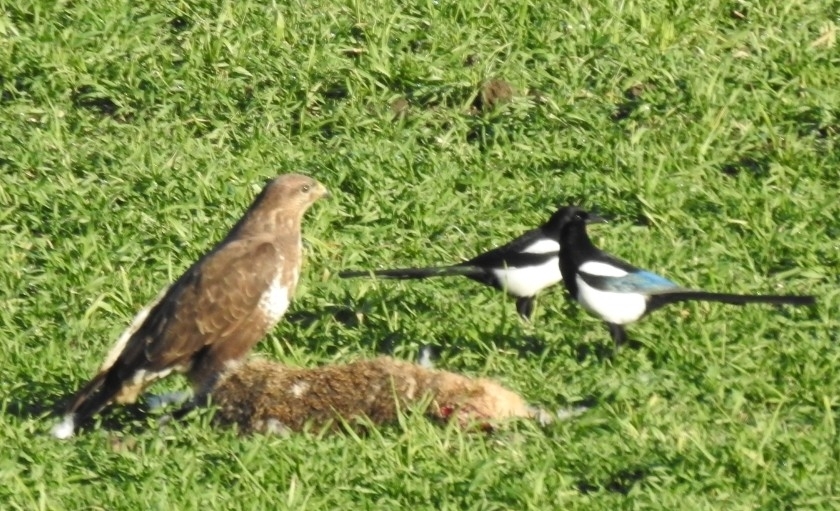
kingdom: Animalia
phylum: Chordata
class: Aves
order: Accipitriformes
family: Accipitridae
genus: Buteo
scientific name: Buteo buteo
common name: Common buzzard
